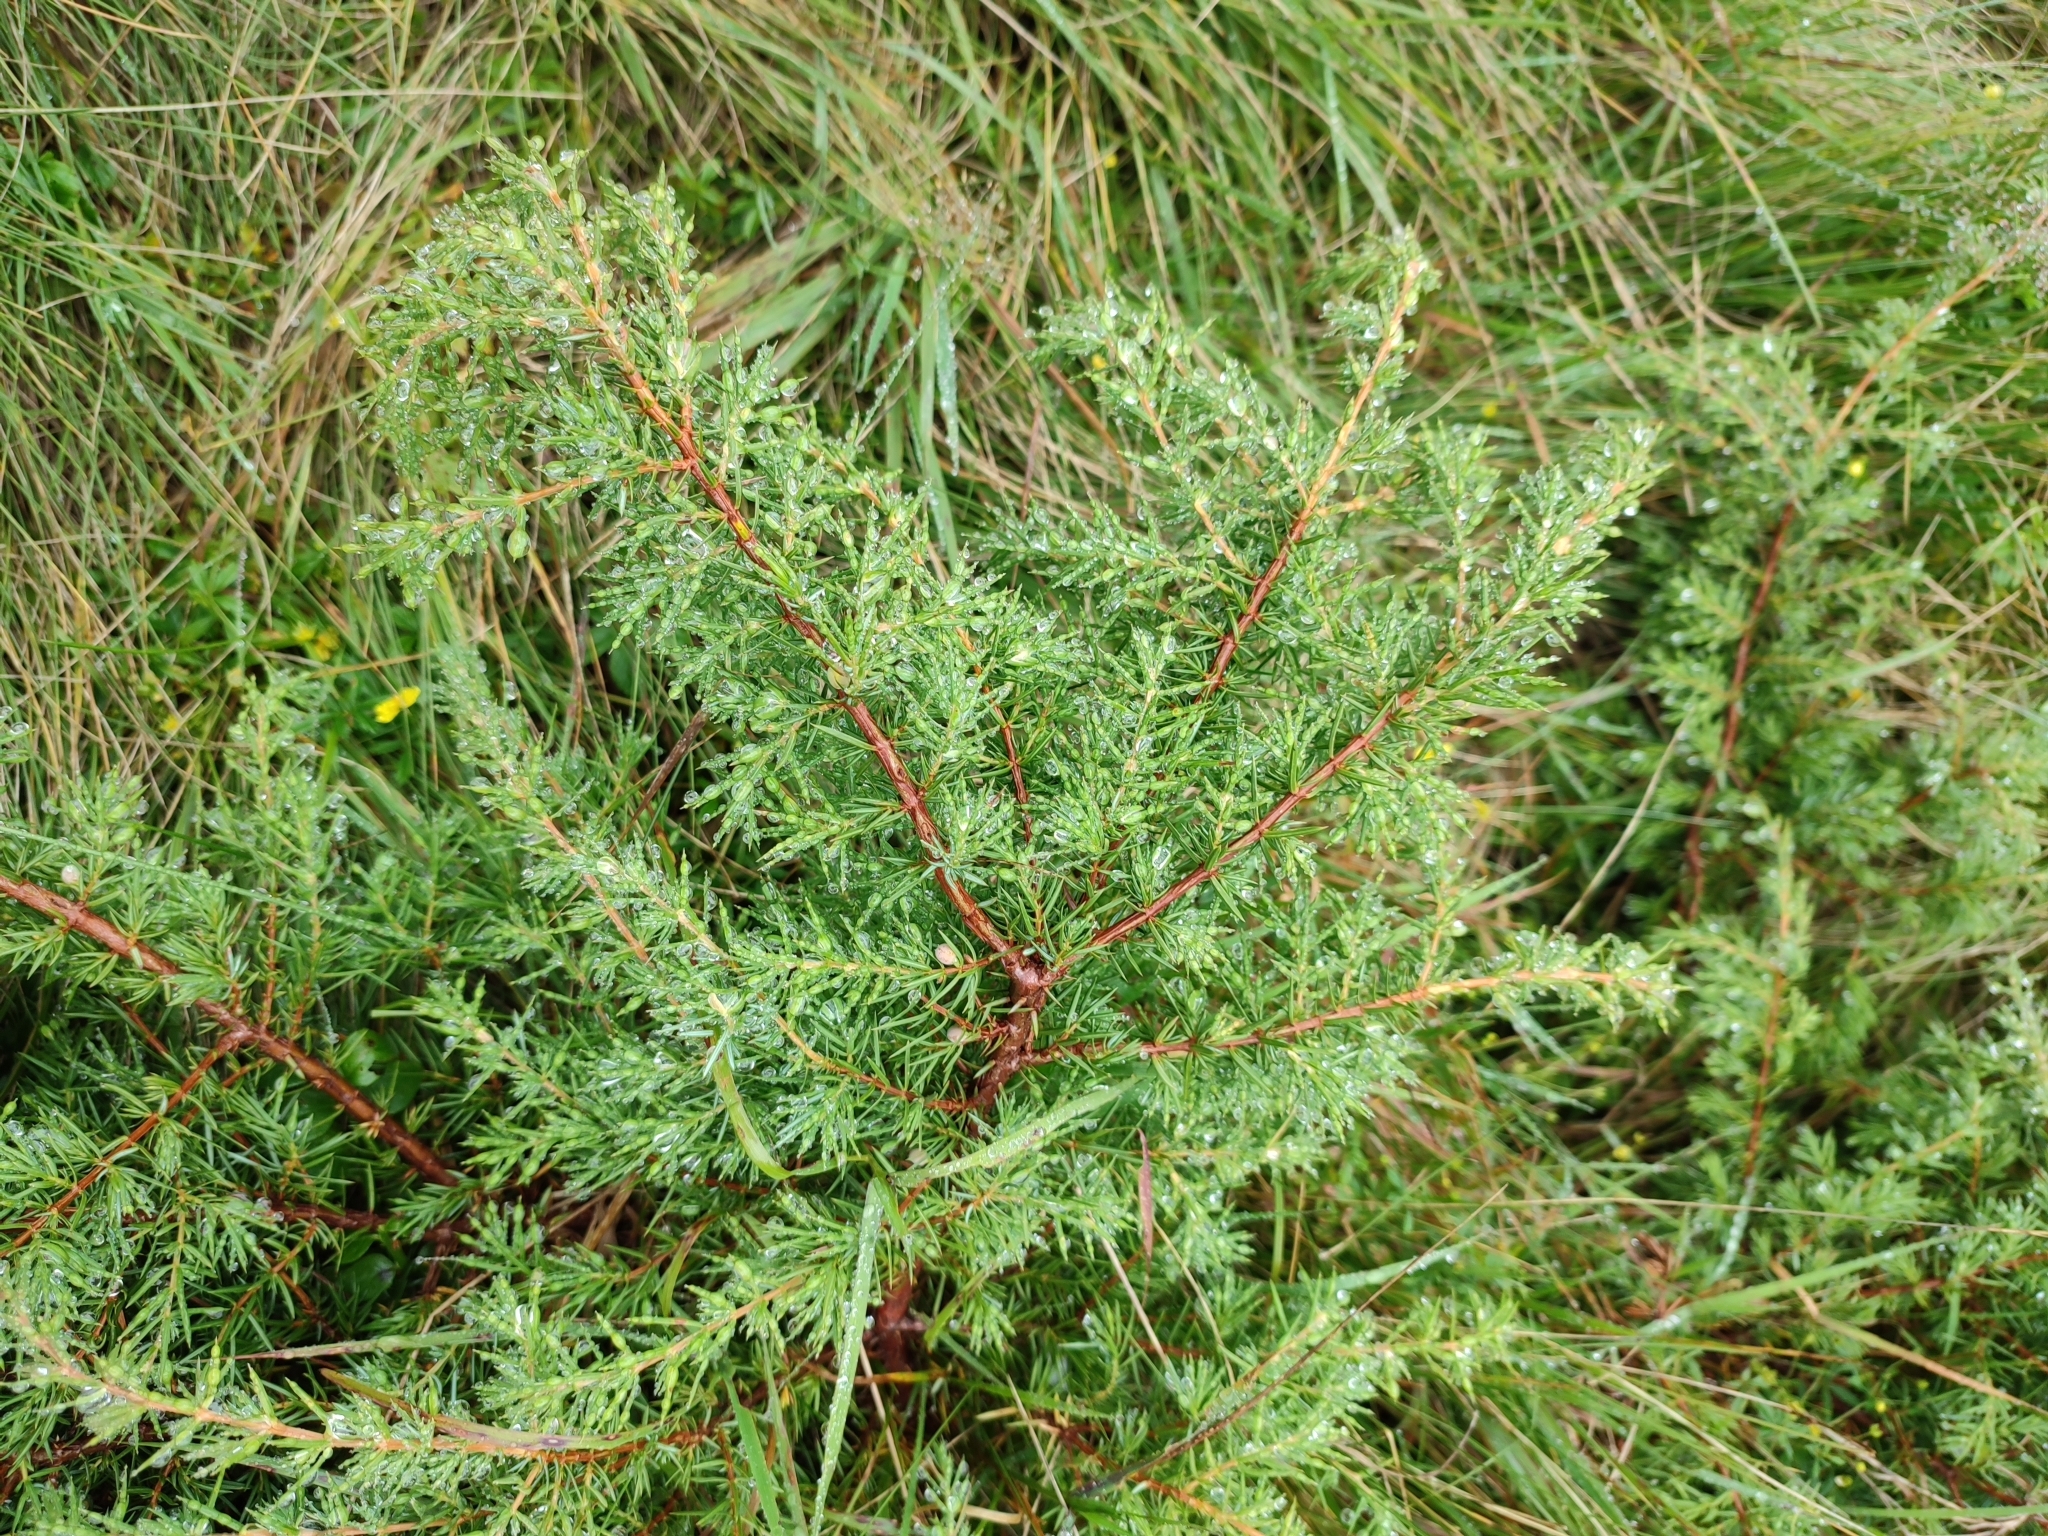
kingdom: Plantae
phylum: Tracheophyta
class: Pinopsida
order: Pinales
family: Cupressaceae
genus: Juniperus
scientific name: Juniperus communis
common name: Common juniper
